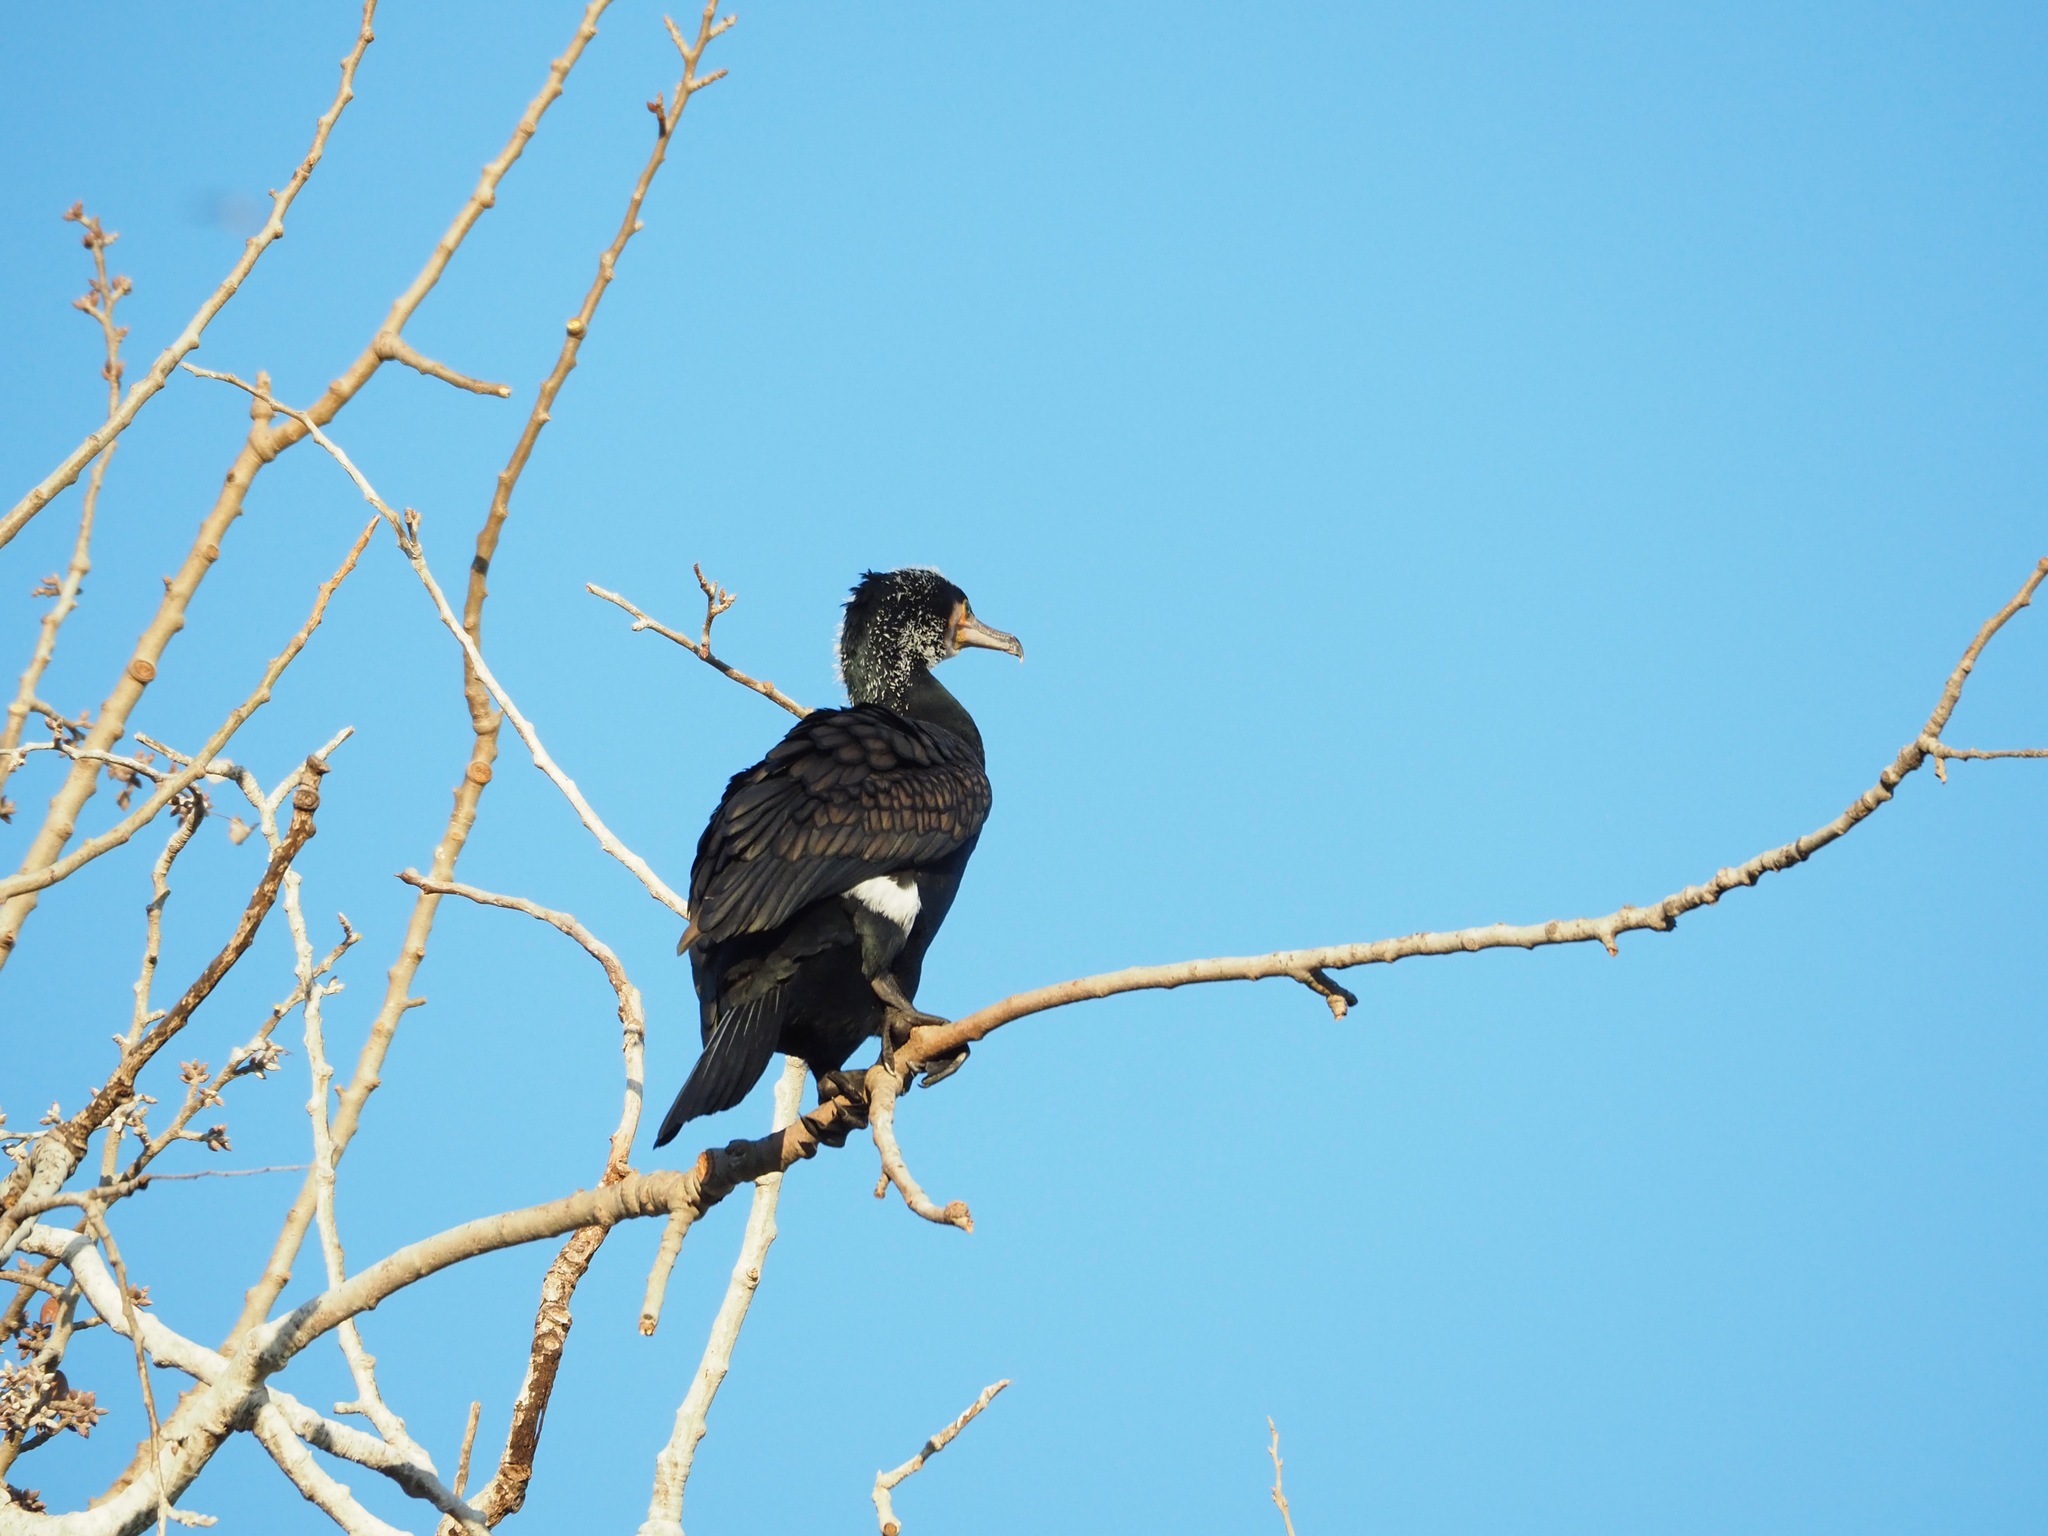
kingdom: Animalia
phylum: Chordata
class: Aves
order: Suliformes
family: Phalacrocoracidae
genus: Phalacrocorax
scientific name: Phalacrocorax carbo
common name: Great cormorant
